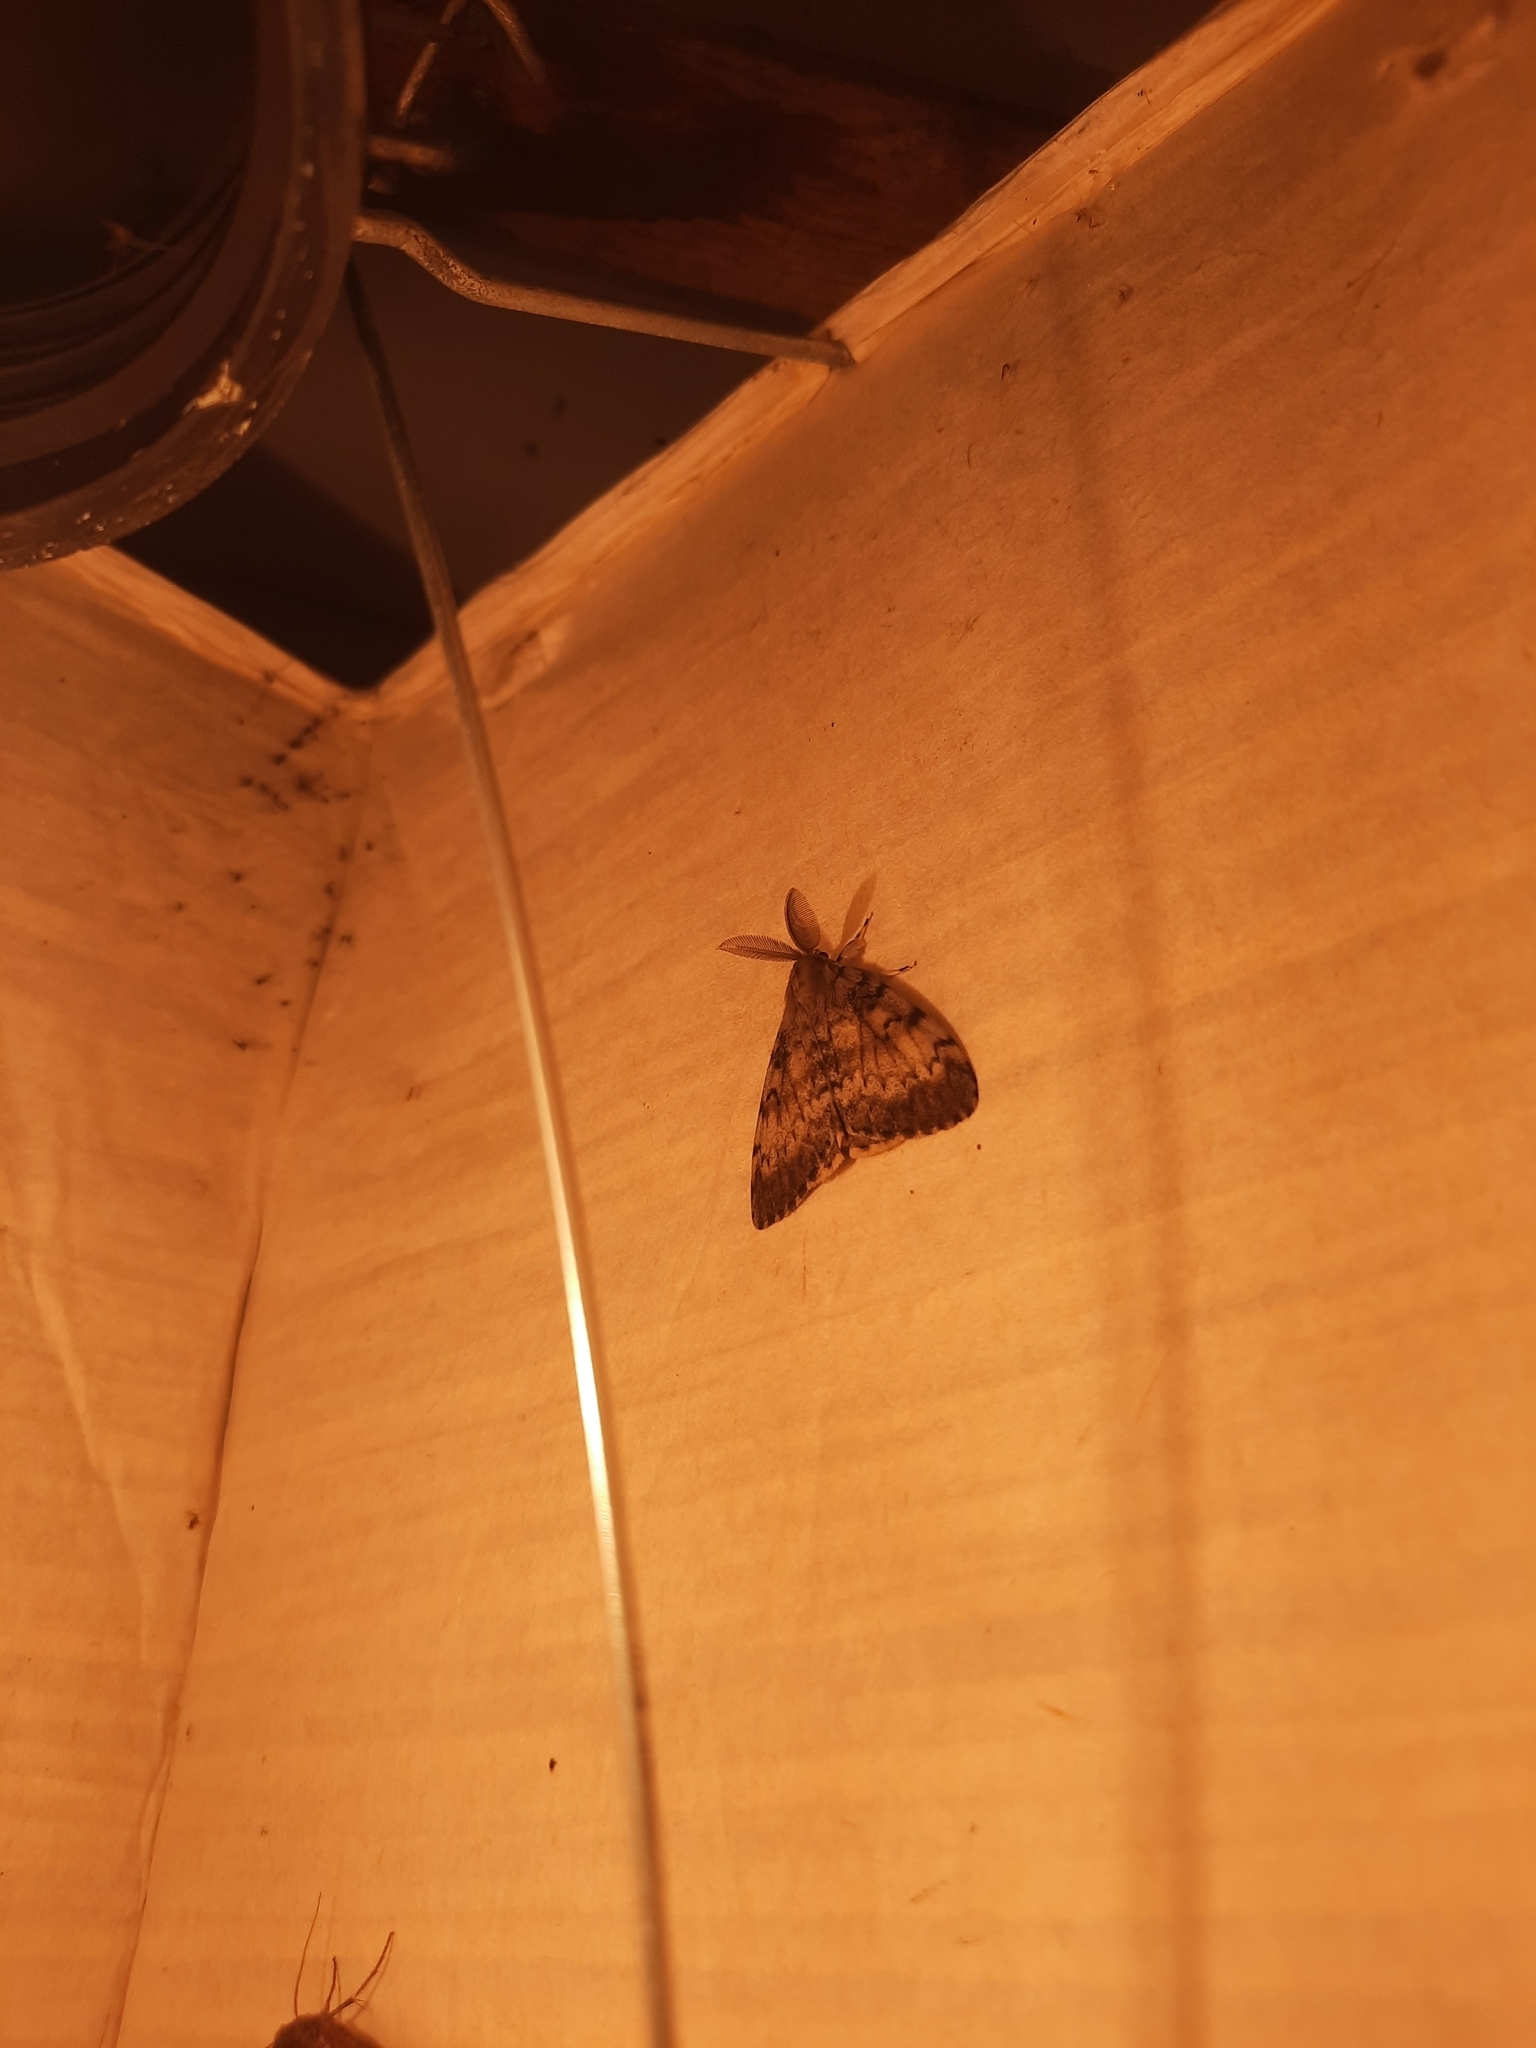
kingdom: Animalia
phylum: Arthropoda
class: Insecta
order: Lepidoptera
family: Erebidae
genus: Lymantria
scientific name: Lymantria dispar
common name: Gypsy moth
